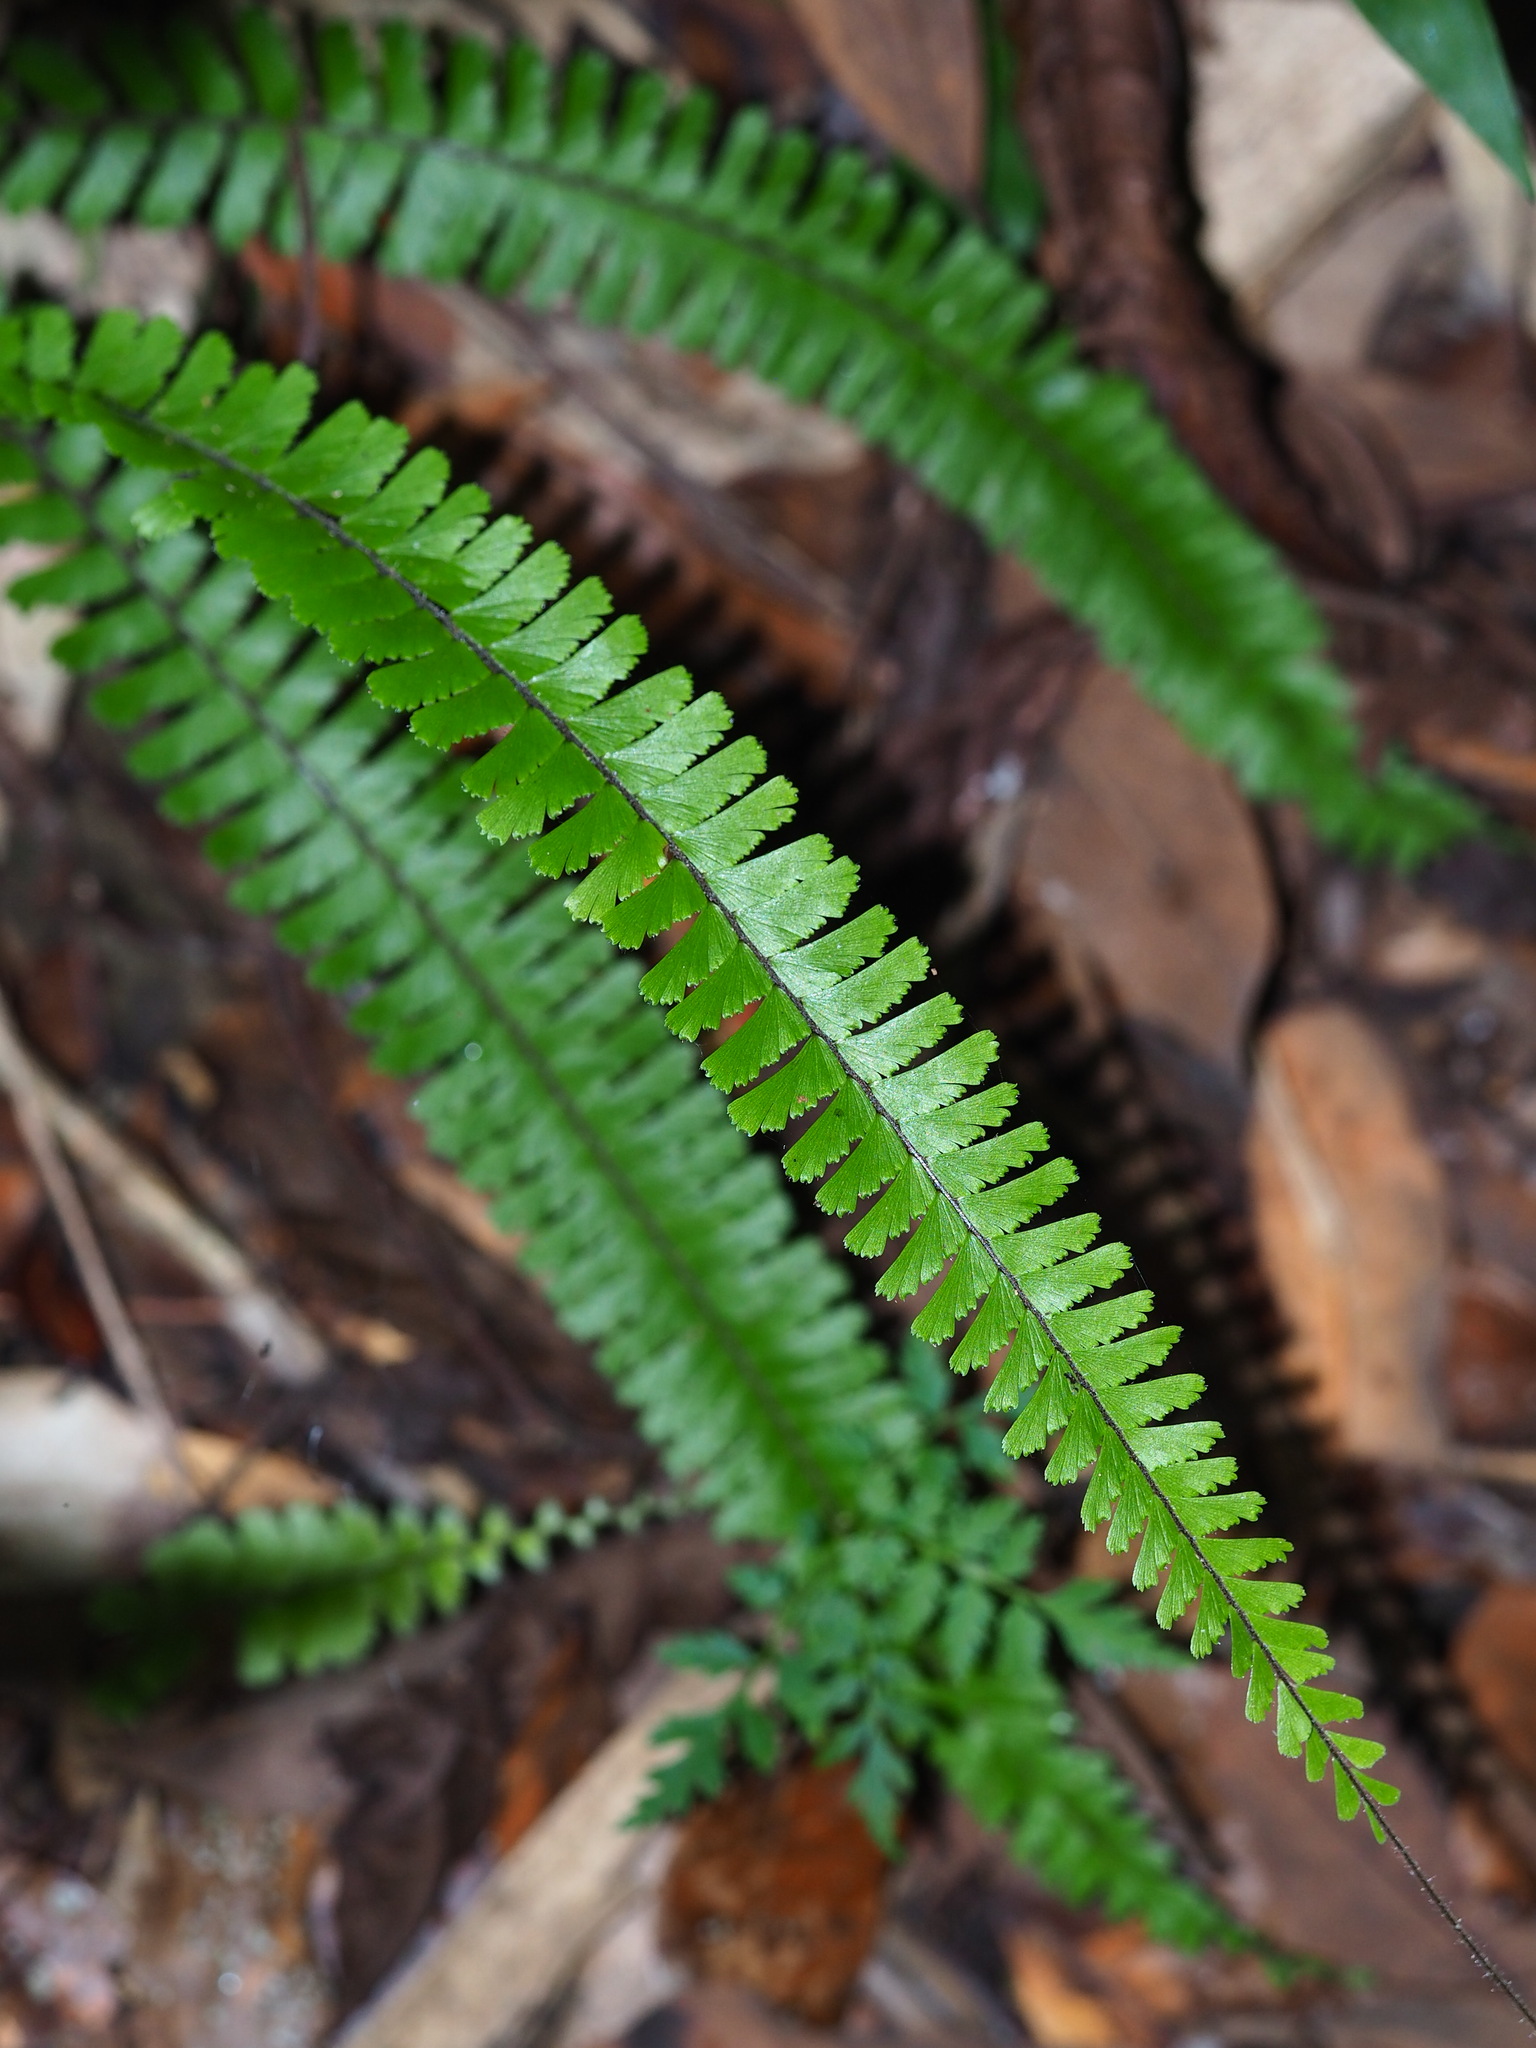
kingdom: Plantae
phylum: Tracheophyta
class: Polypodiopsida
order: Polypodiales
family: Pteridaceae
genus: Adiantum
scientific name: Adiantum caudatum
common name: Tailed maidenhair
